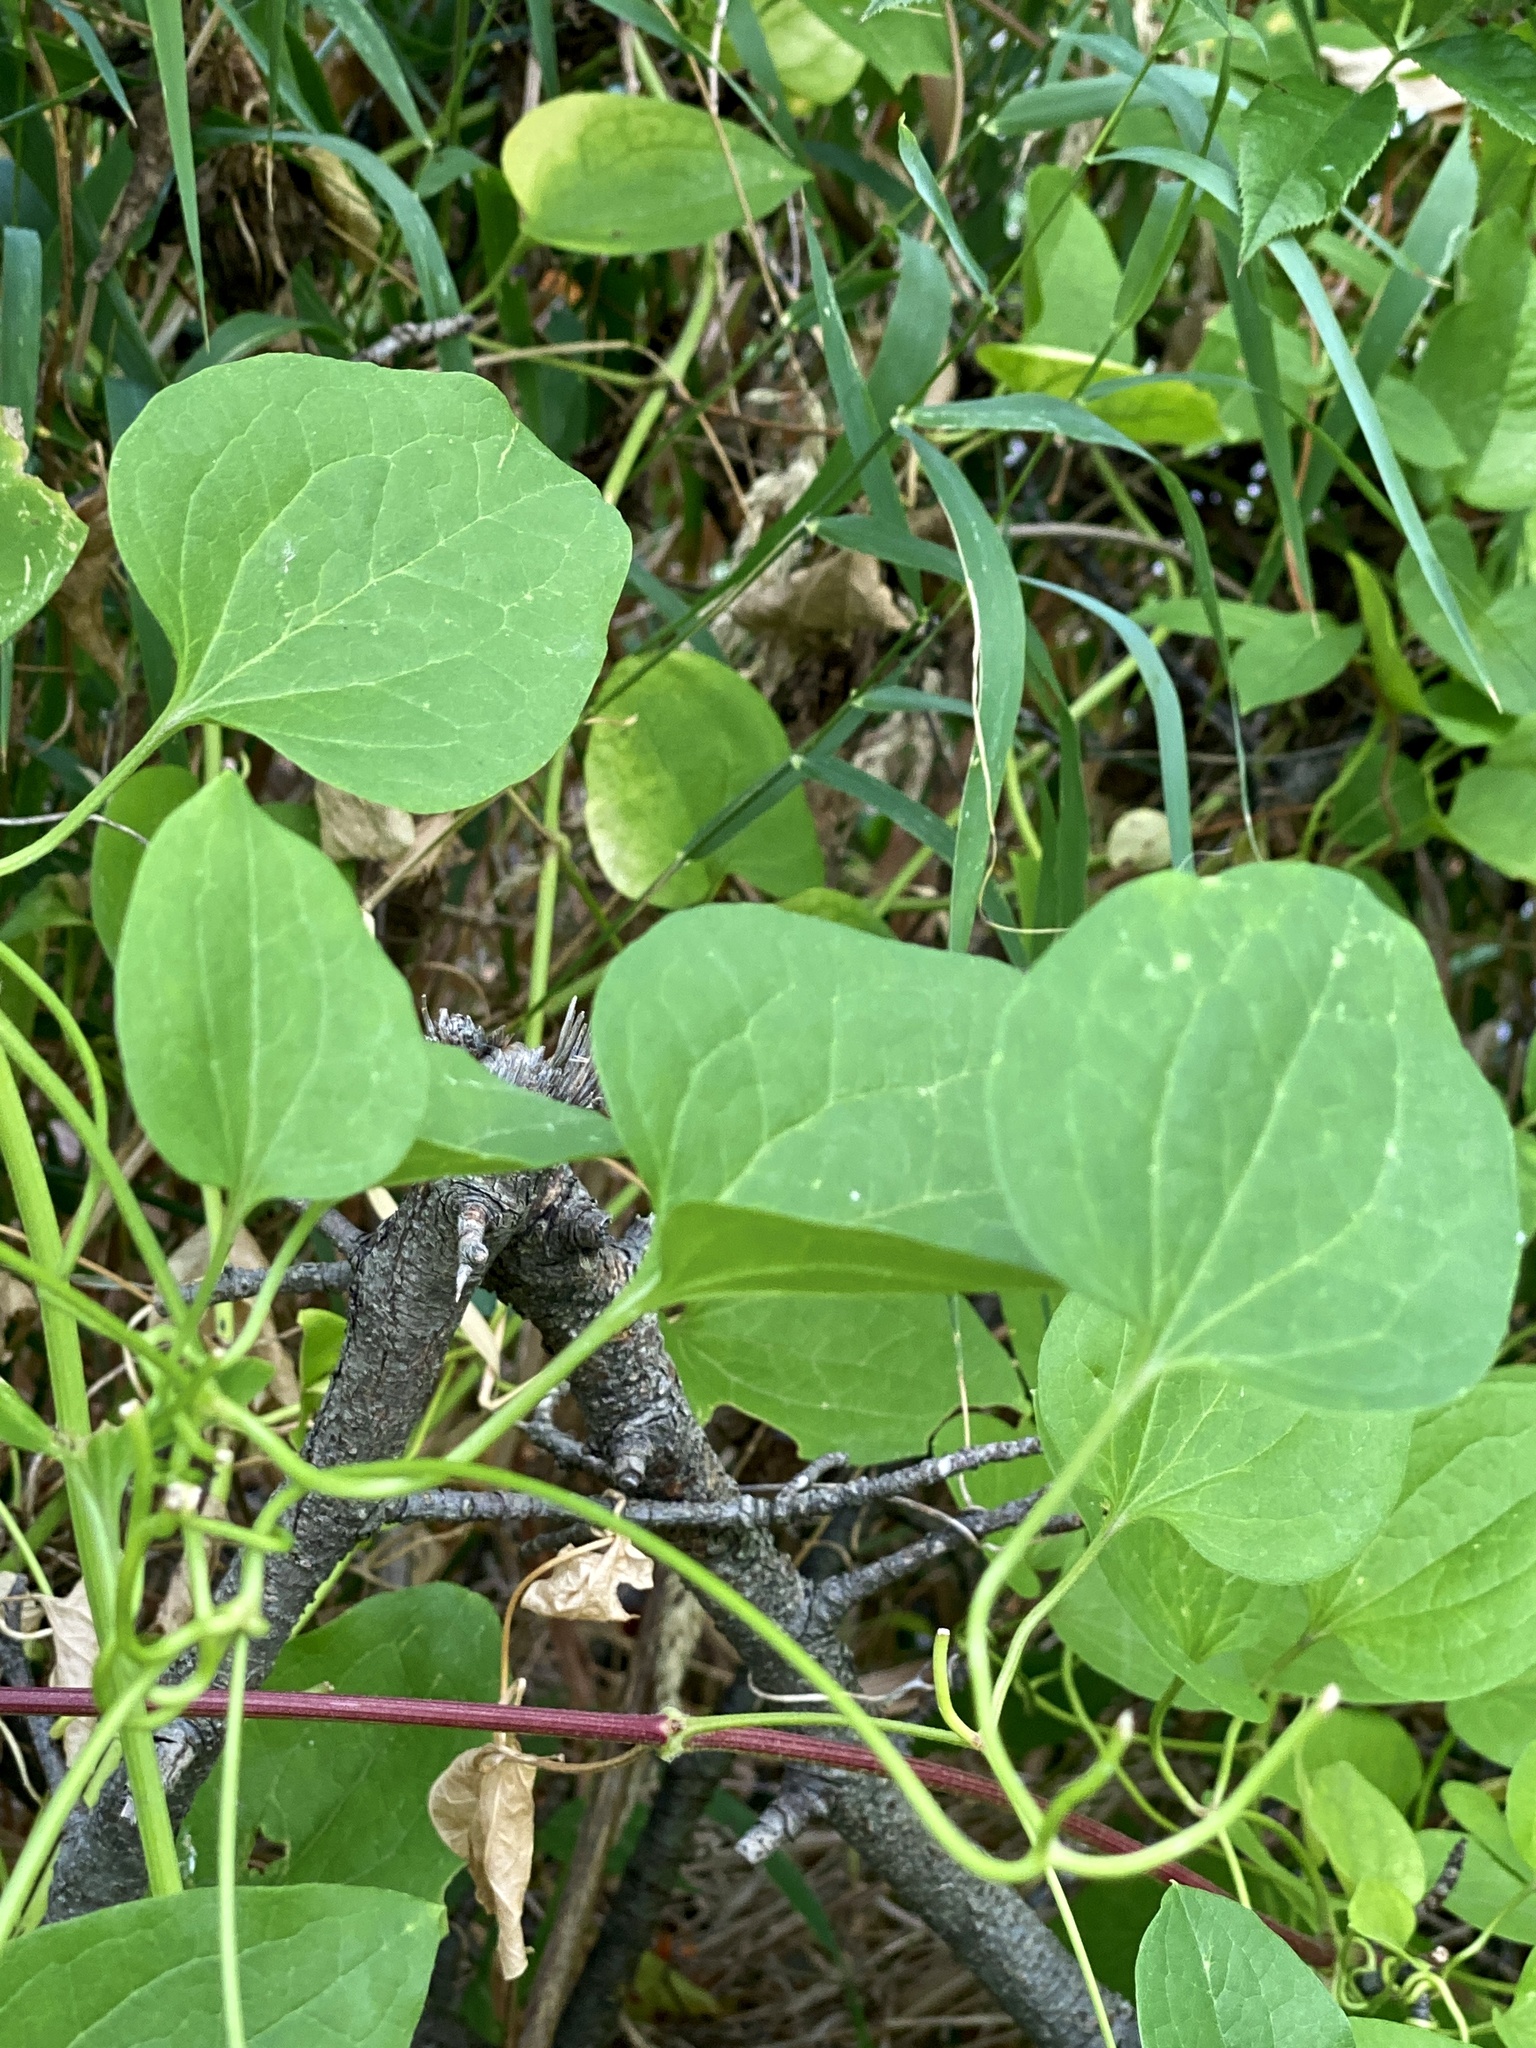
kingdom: Plantae
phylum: Tracheophyta
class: Magnoliopsida
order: Ranunculales
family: Ranunculaceae
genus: Clematis
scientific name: Clematis terniflora
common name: Sweet autumn clematis
